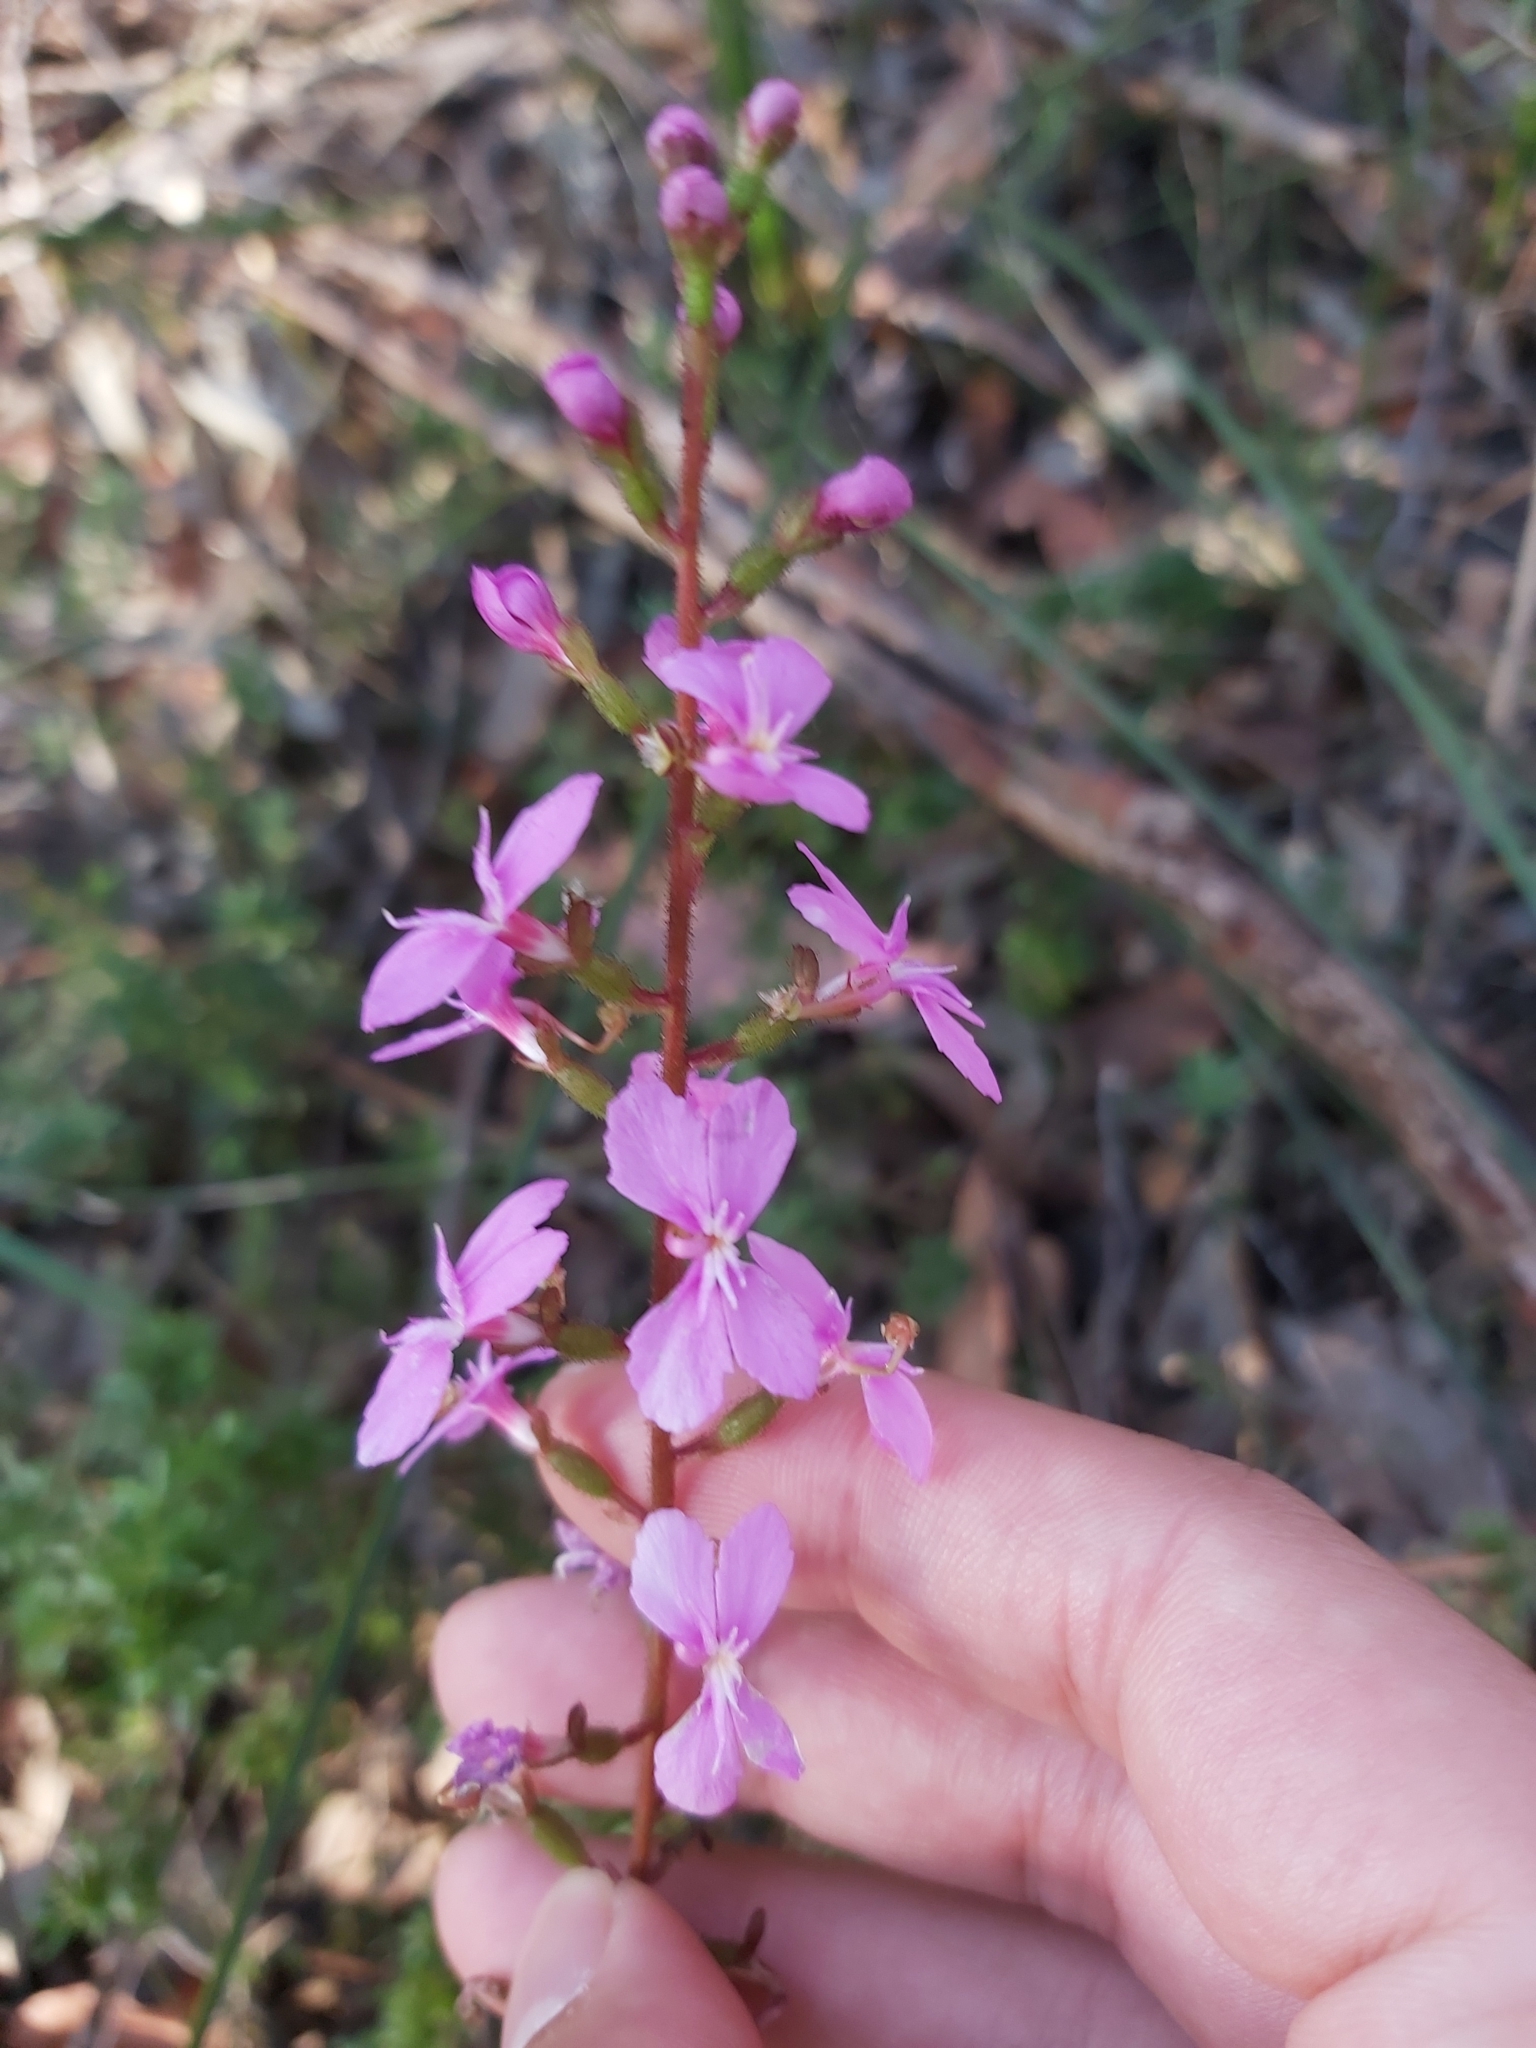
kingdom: Plantae
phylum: Tracheophyta
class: Magnoliopsida
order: Asterales
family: Stylidiaceae
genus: Stylidium
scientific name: Stylidium productum
